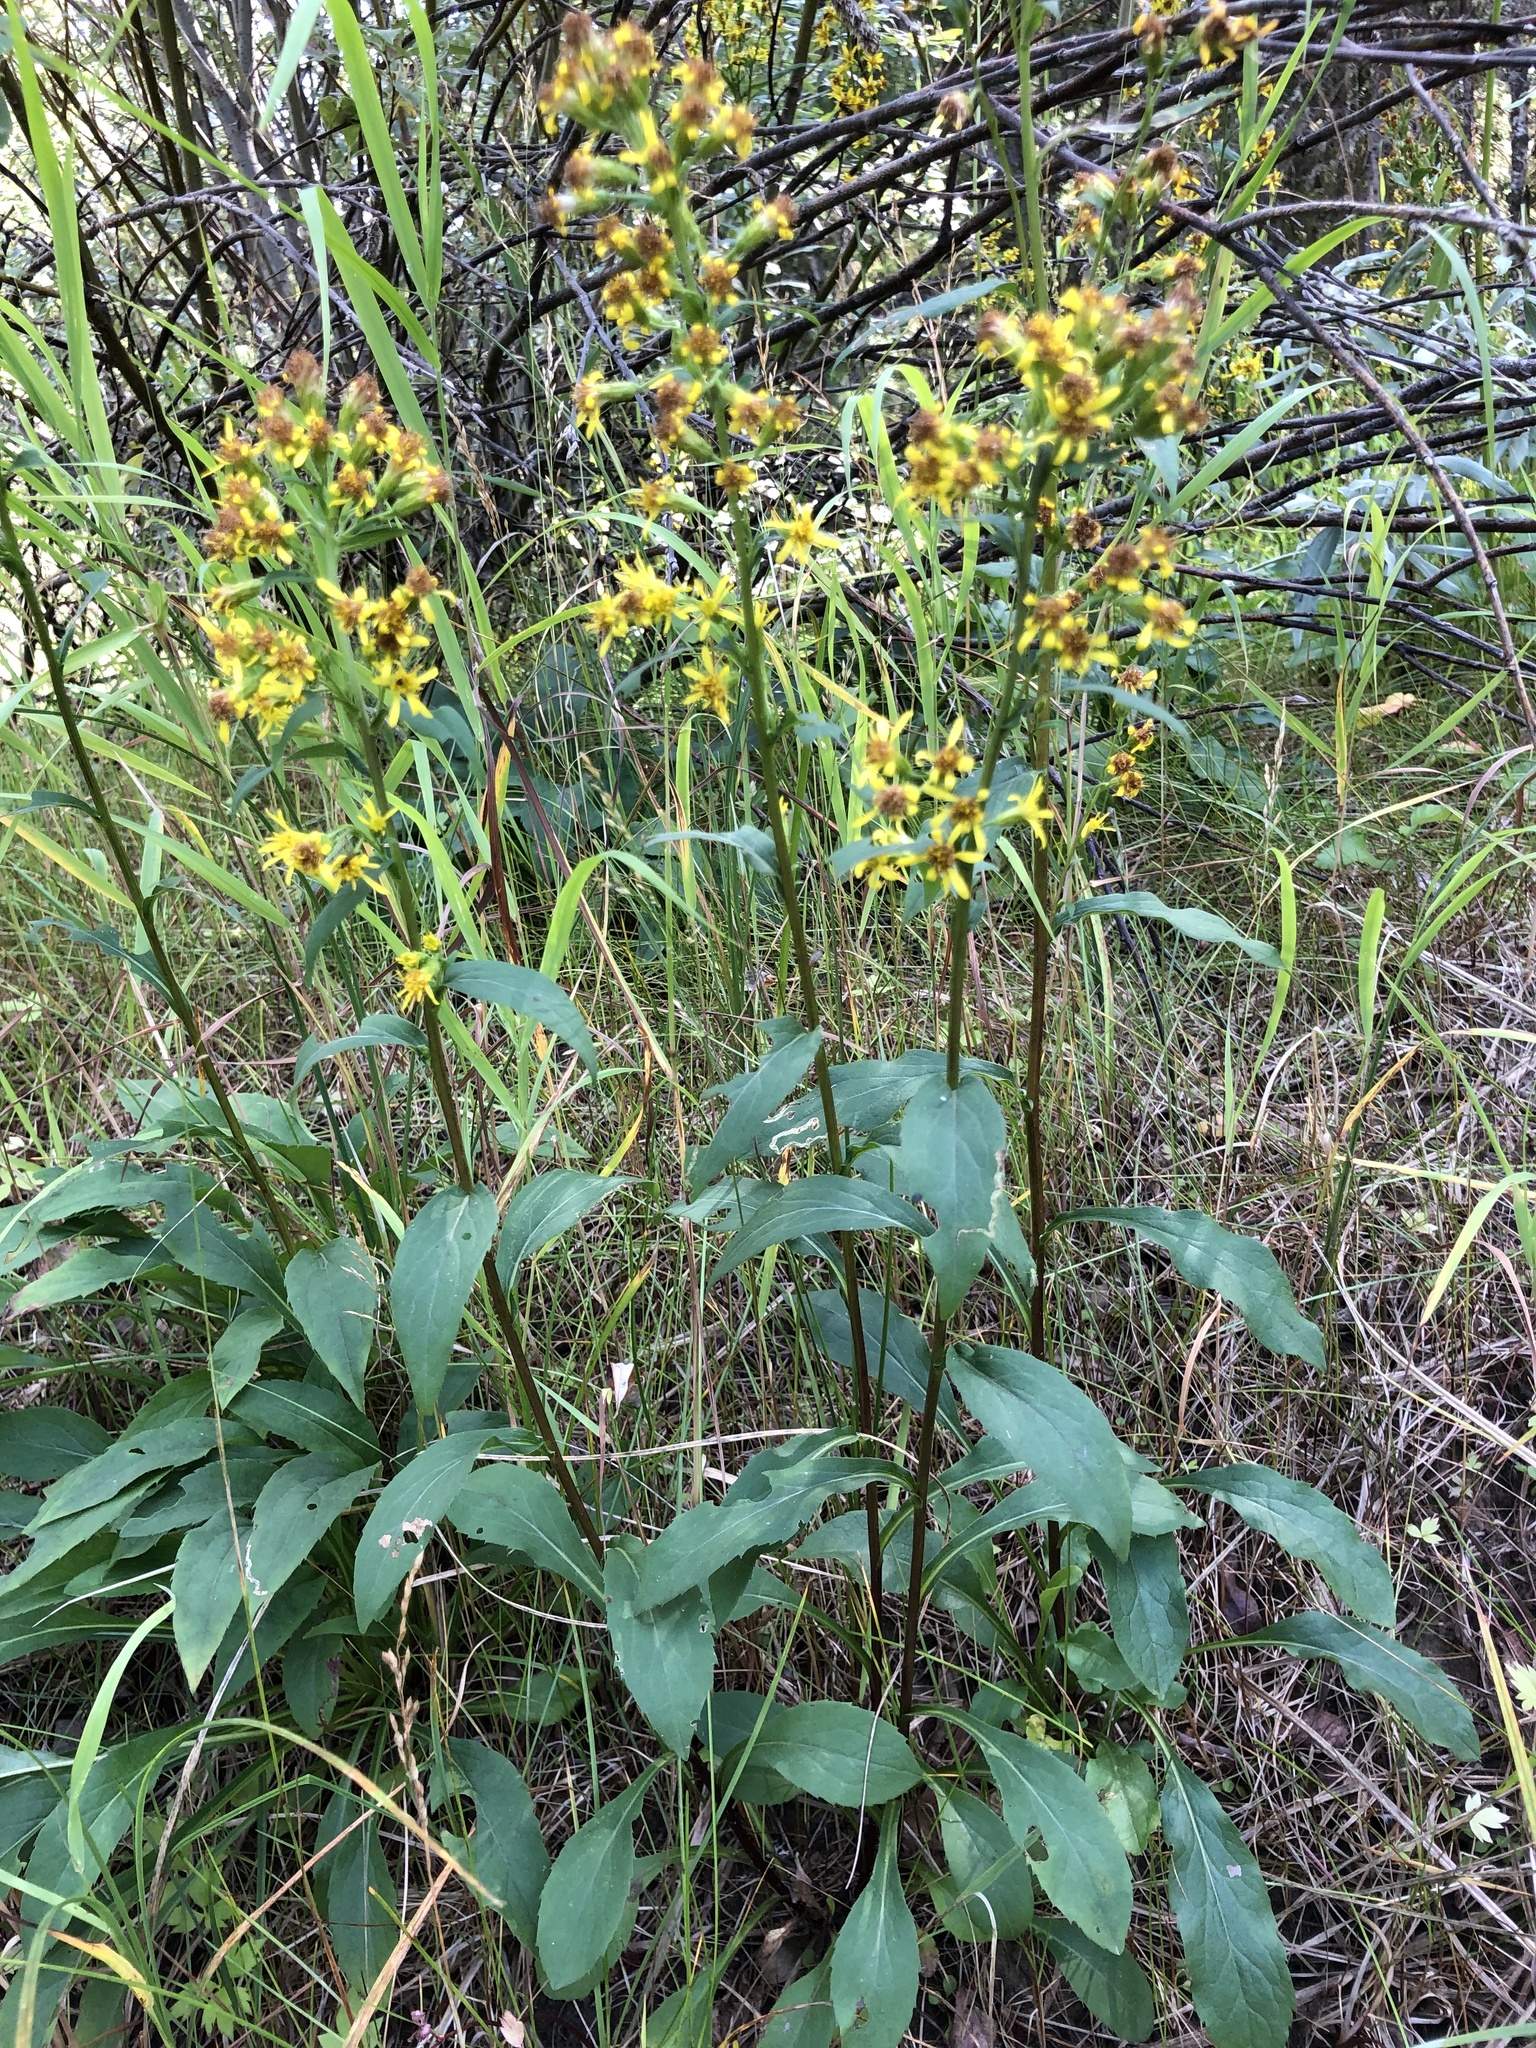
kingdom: Plantae
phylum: Tracheophyta
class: Magnoliopsida
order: Asterales
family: Asteraceae
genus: Solidago
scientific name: Solidago virgaurea
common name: Goldenrod
